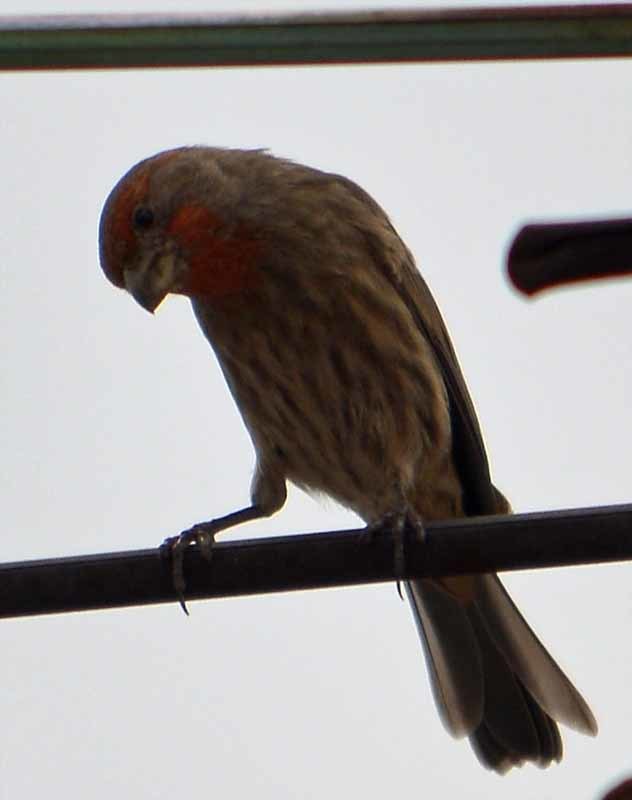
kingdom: Animalia
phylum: Chordata
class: Aves
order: Passeriformes
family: Fringillidae
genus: Haemorhous
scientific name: Haemorhous mexicanus
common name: House finch
